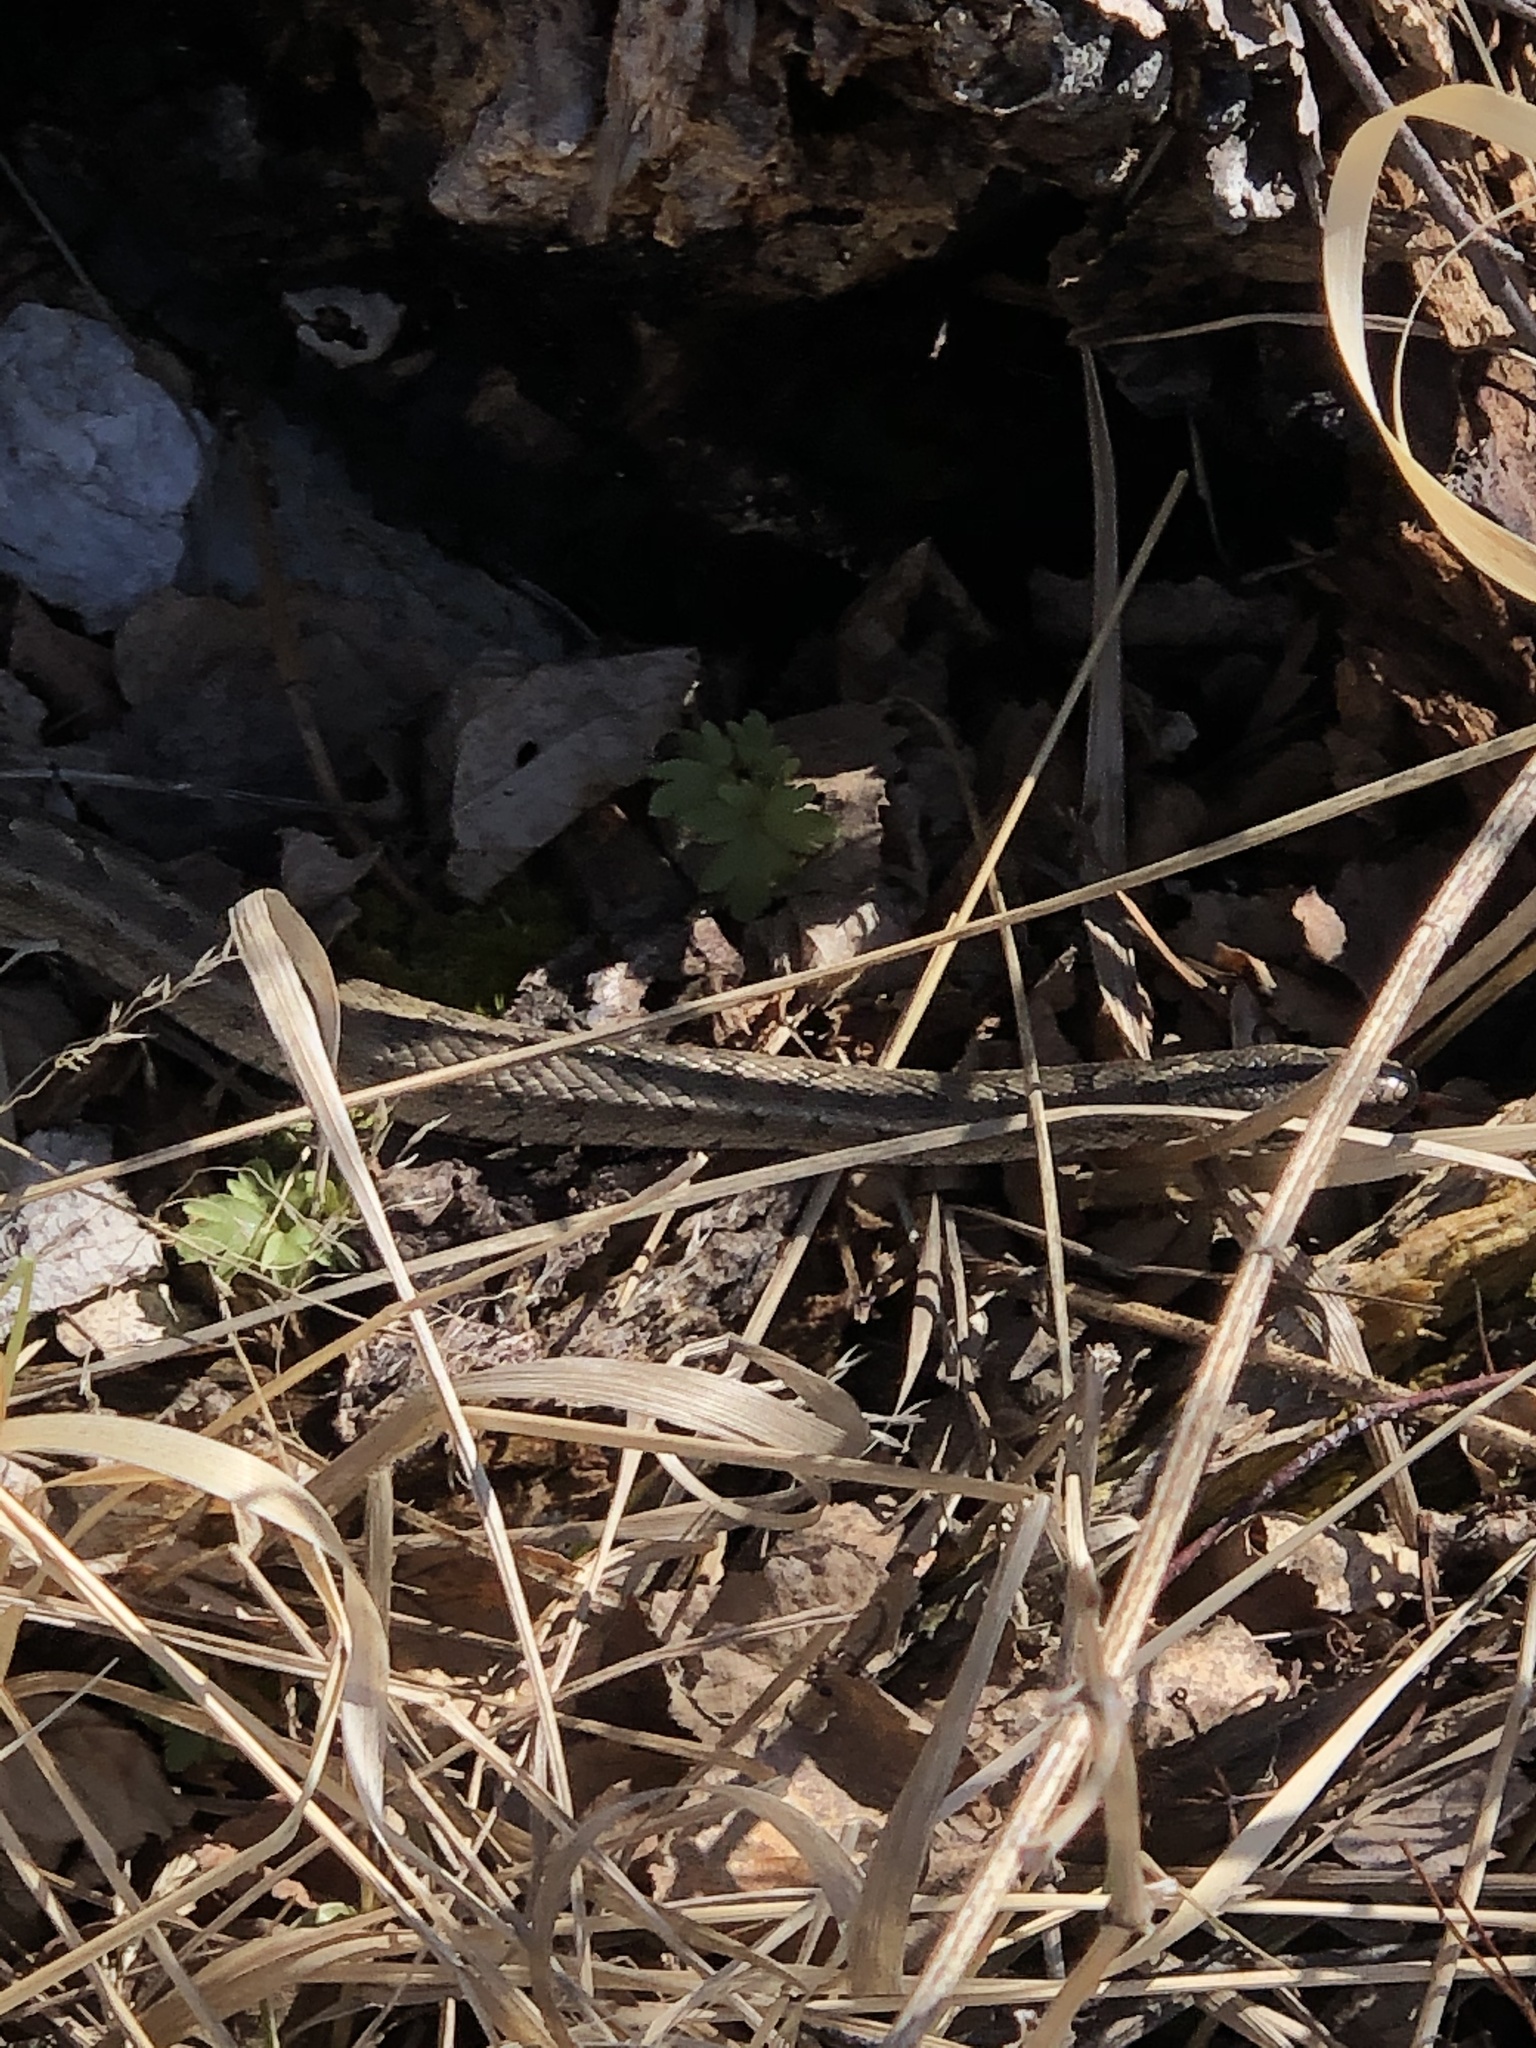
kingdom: Animalia
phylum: Chordata
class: Squamata
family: Colubridae
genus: Elaphe
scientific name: Elaphe dione
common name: Dione ratsnake
